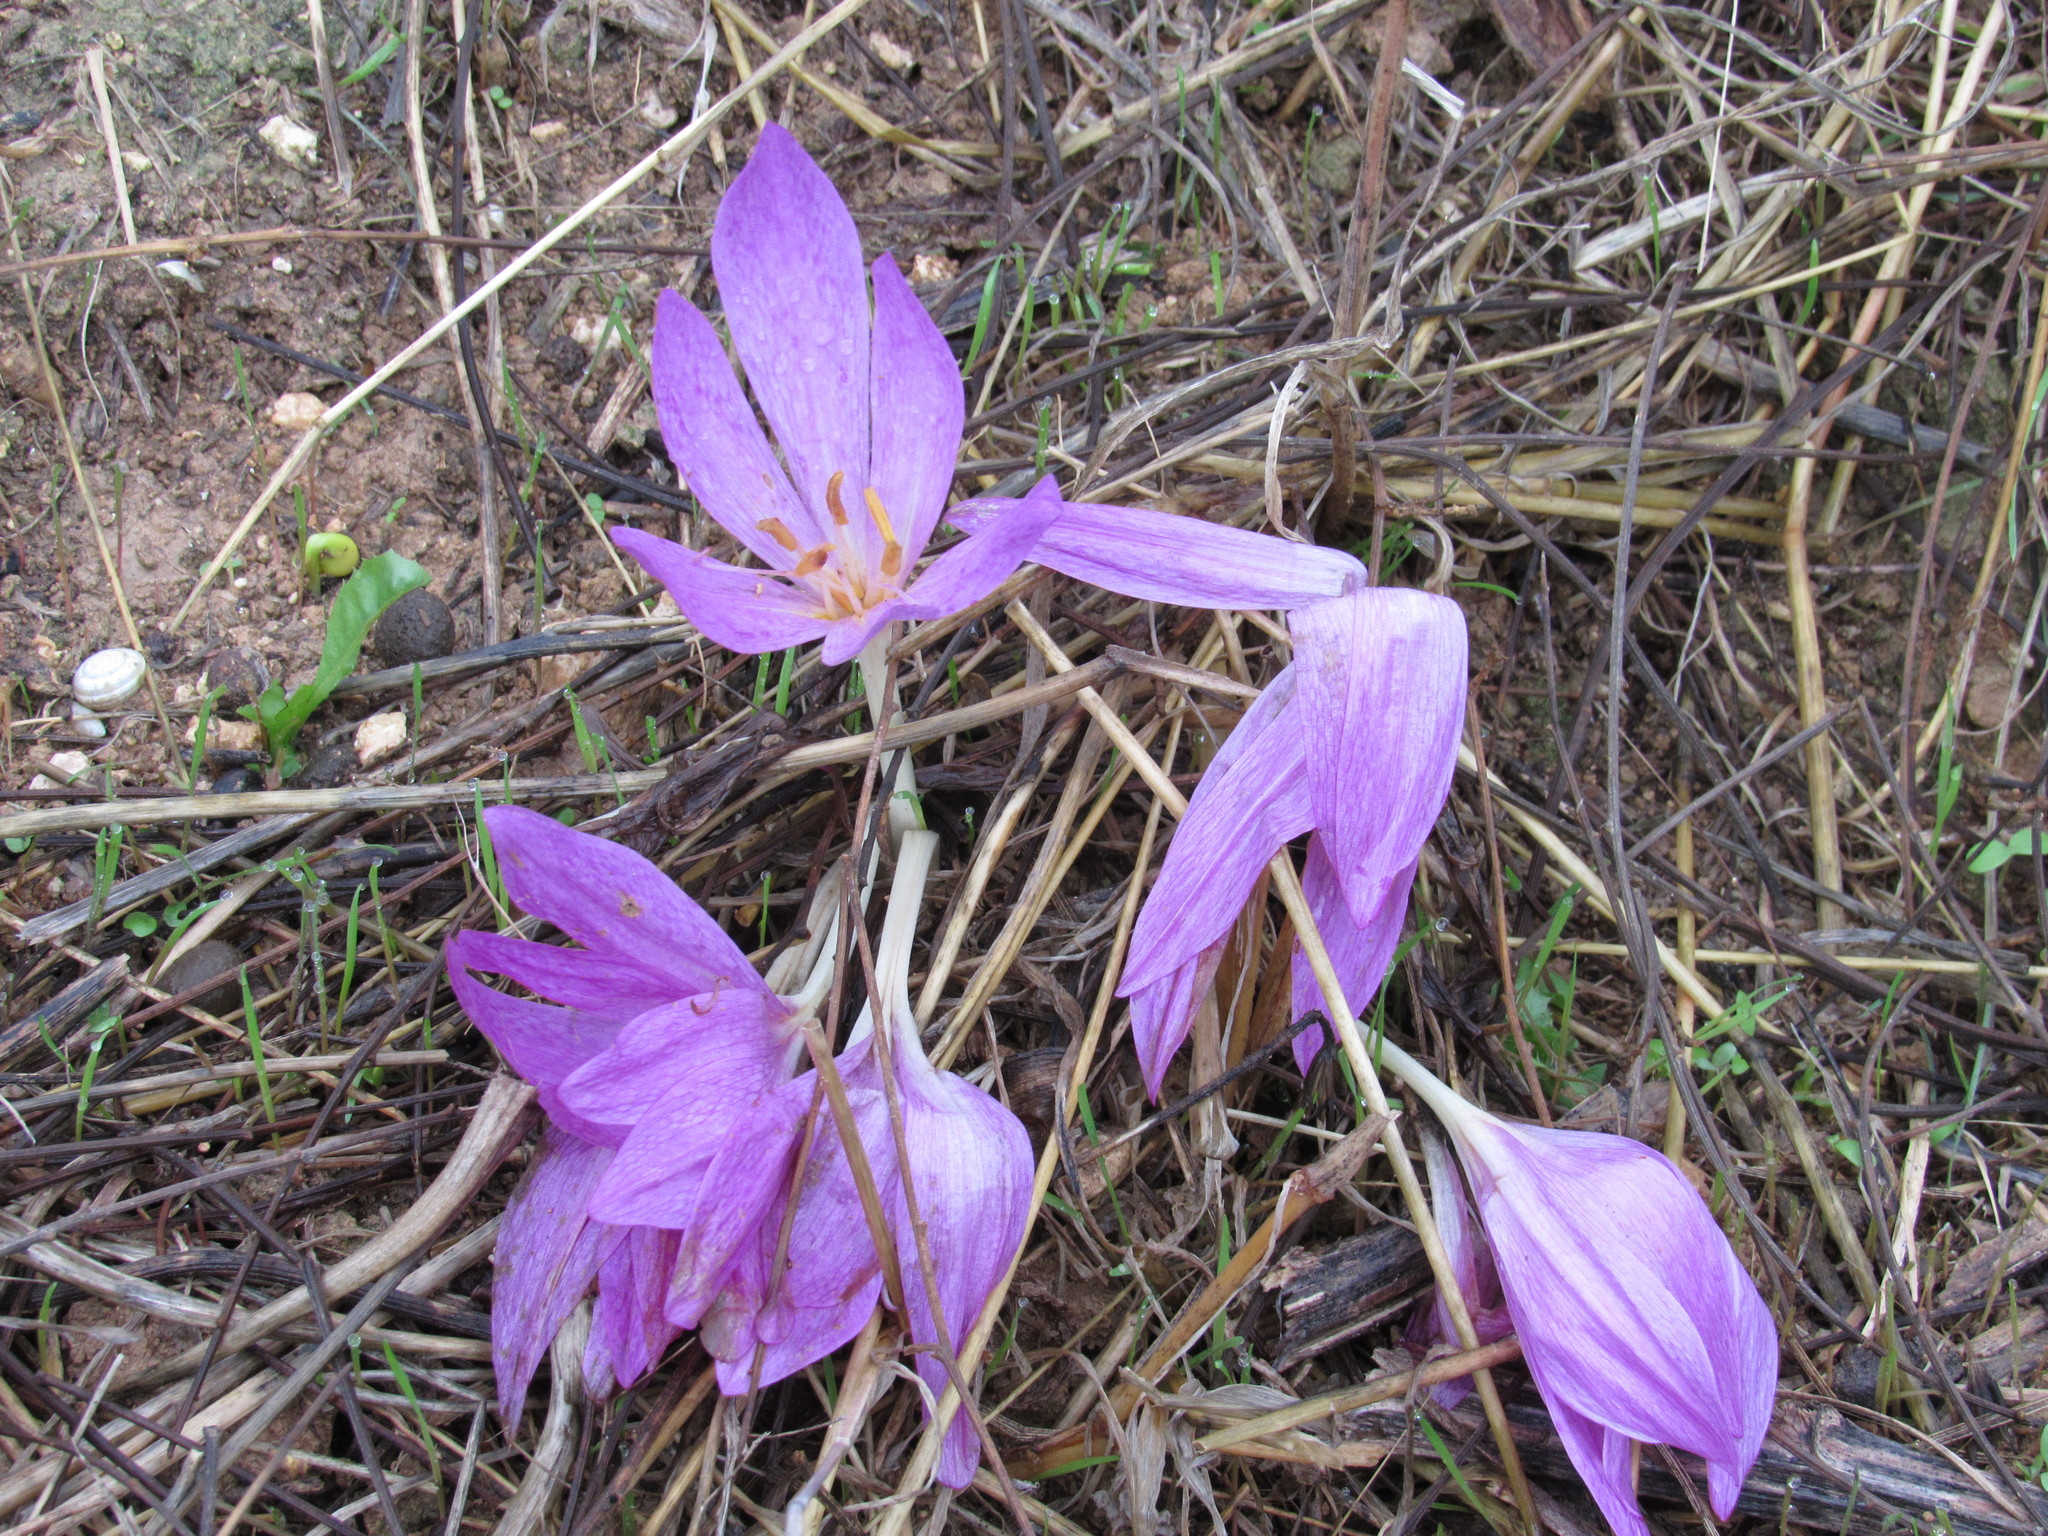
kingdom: Plantae
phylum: Tracheophyta
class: Liliopsida
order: Liliales
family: Colchicaceae
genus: Colchicum
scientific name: Colchicum lusitanum
